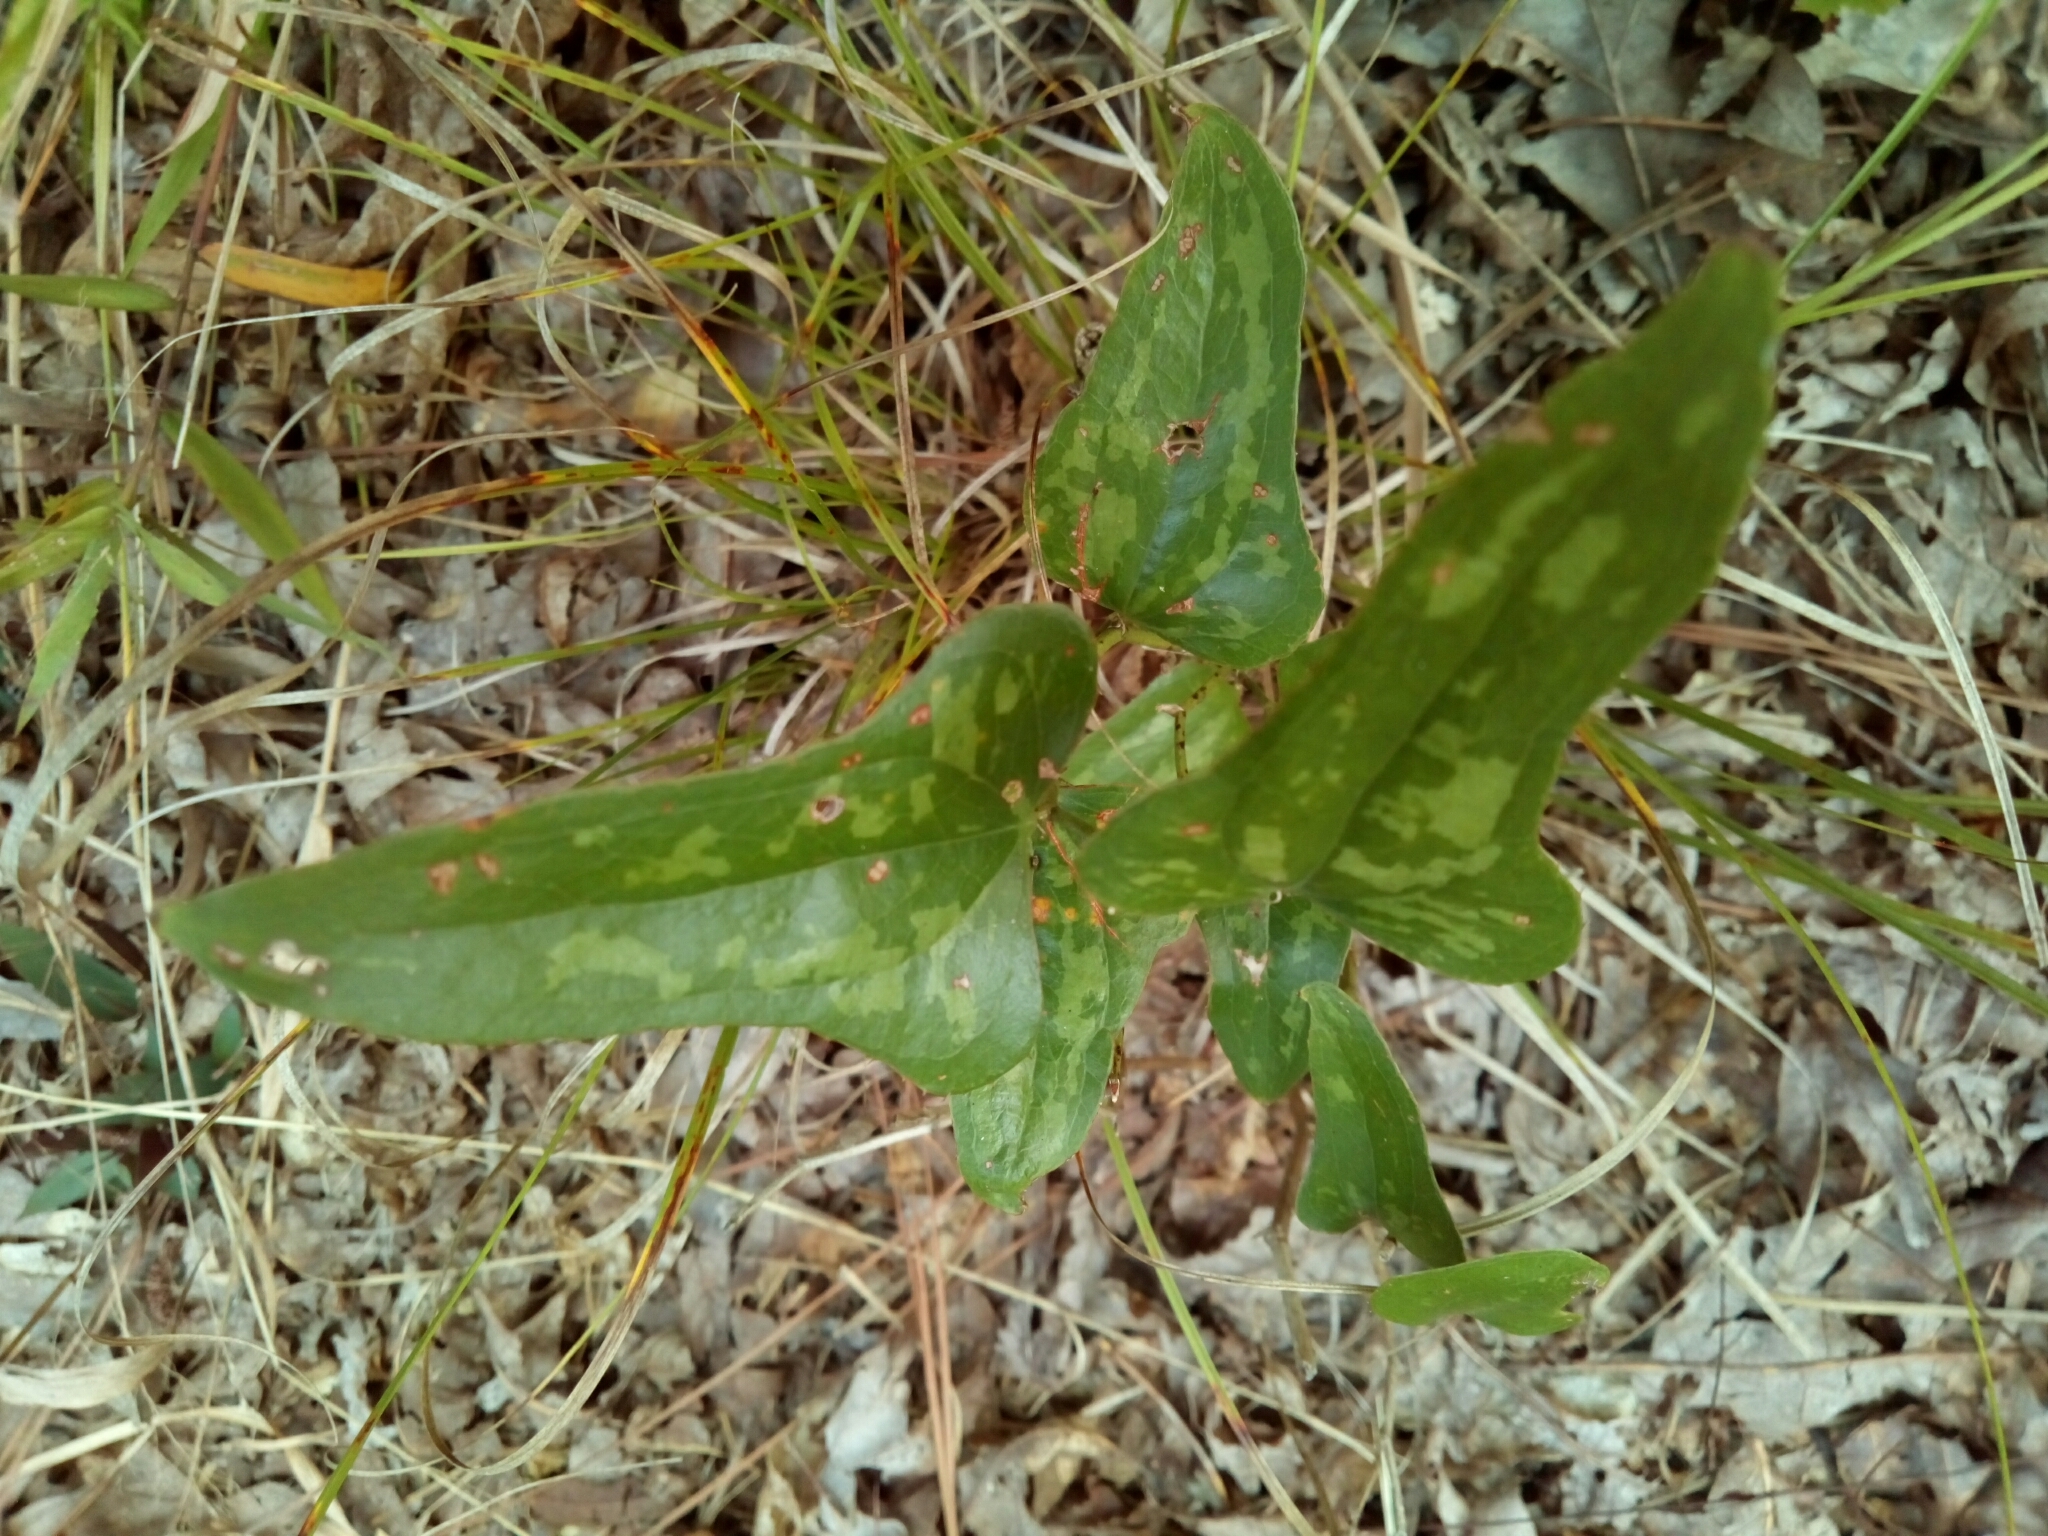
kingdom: Plantae
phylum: Tracheophyta
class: Liliopsida
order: Liliales
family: Smilacaceae
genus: Smilax
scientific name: Smilax bona-nox
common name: Catbrier
